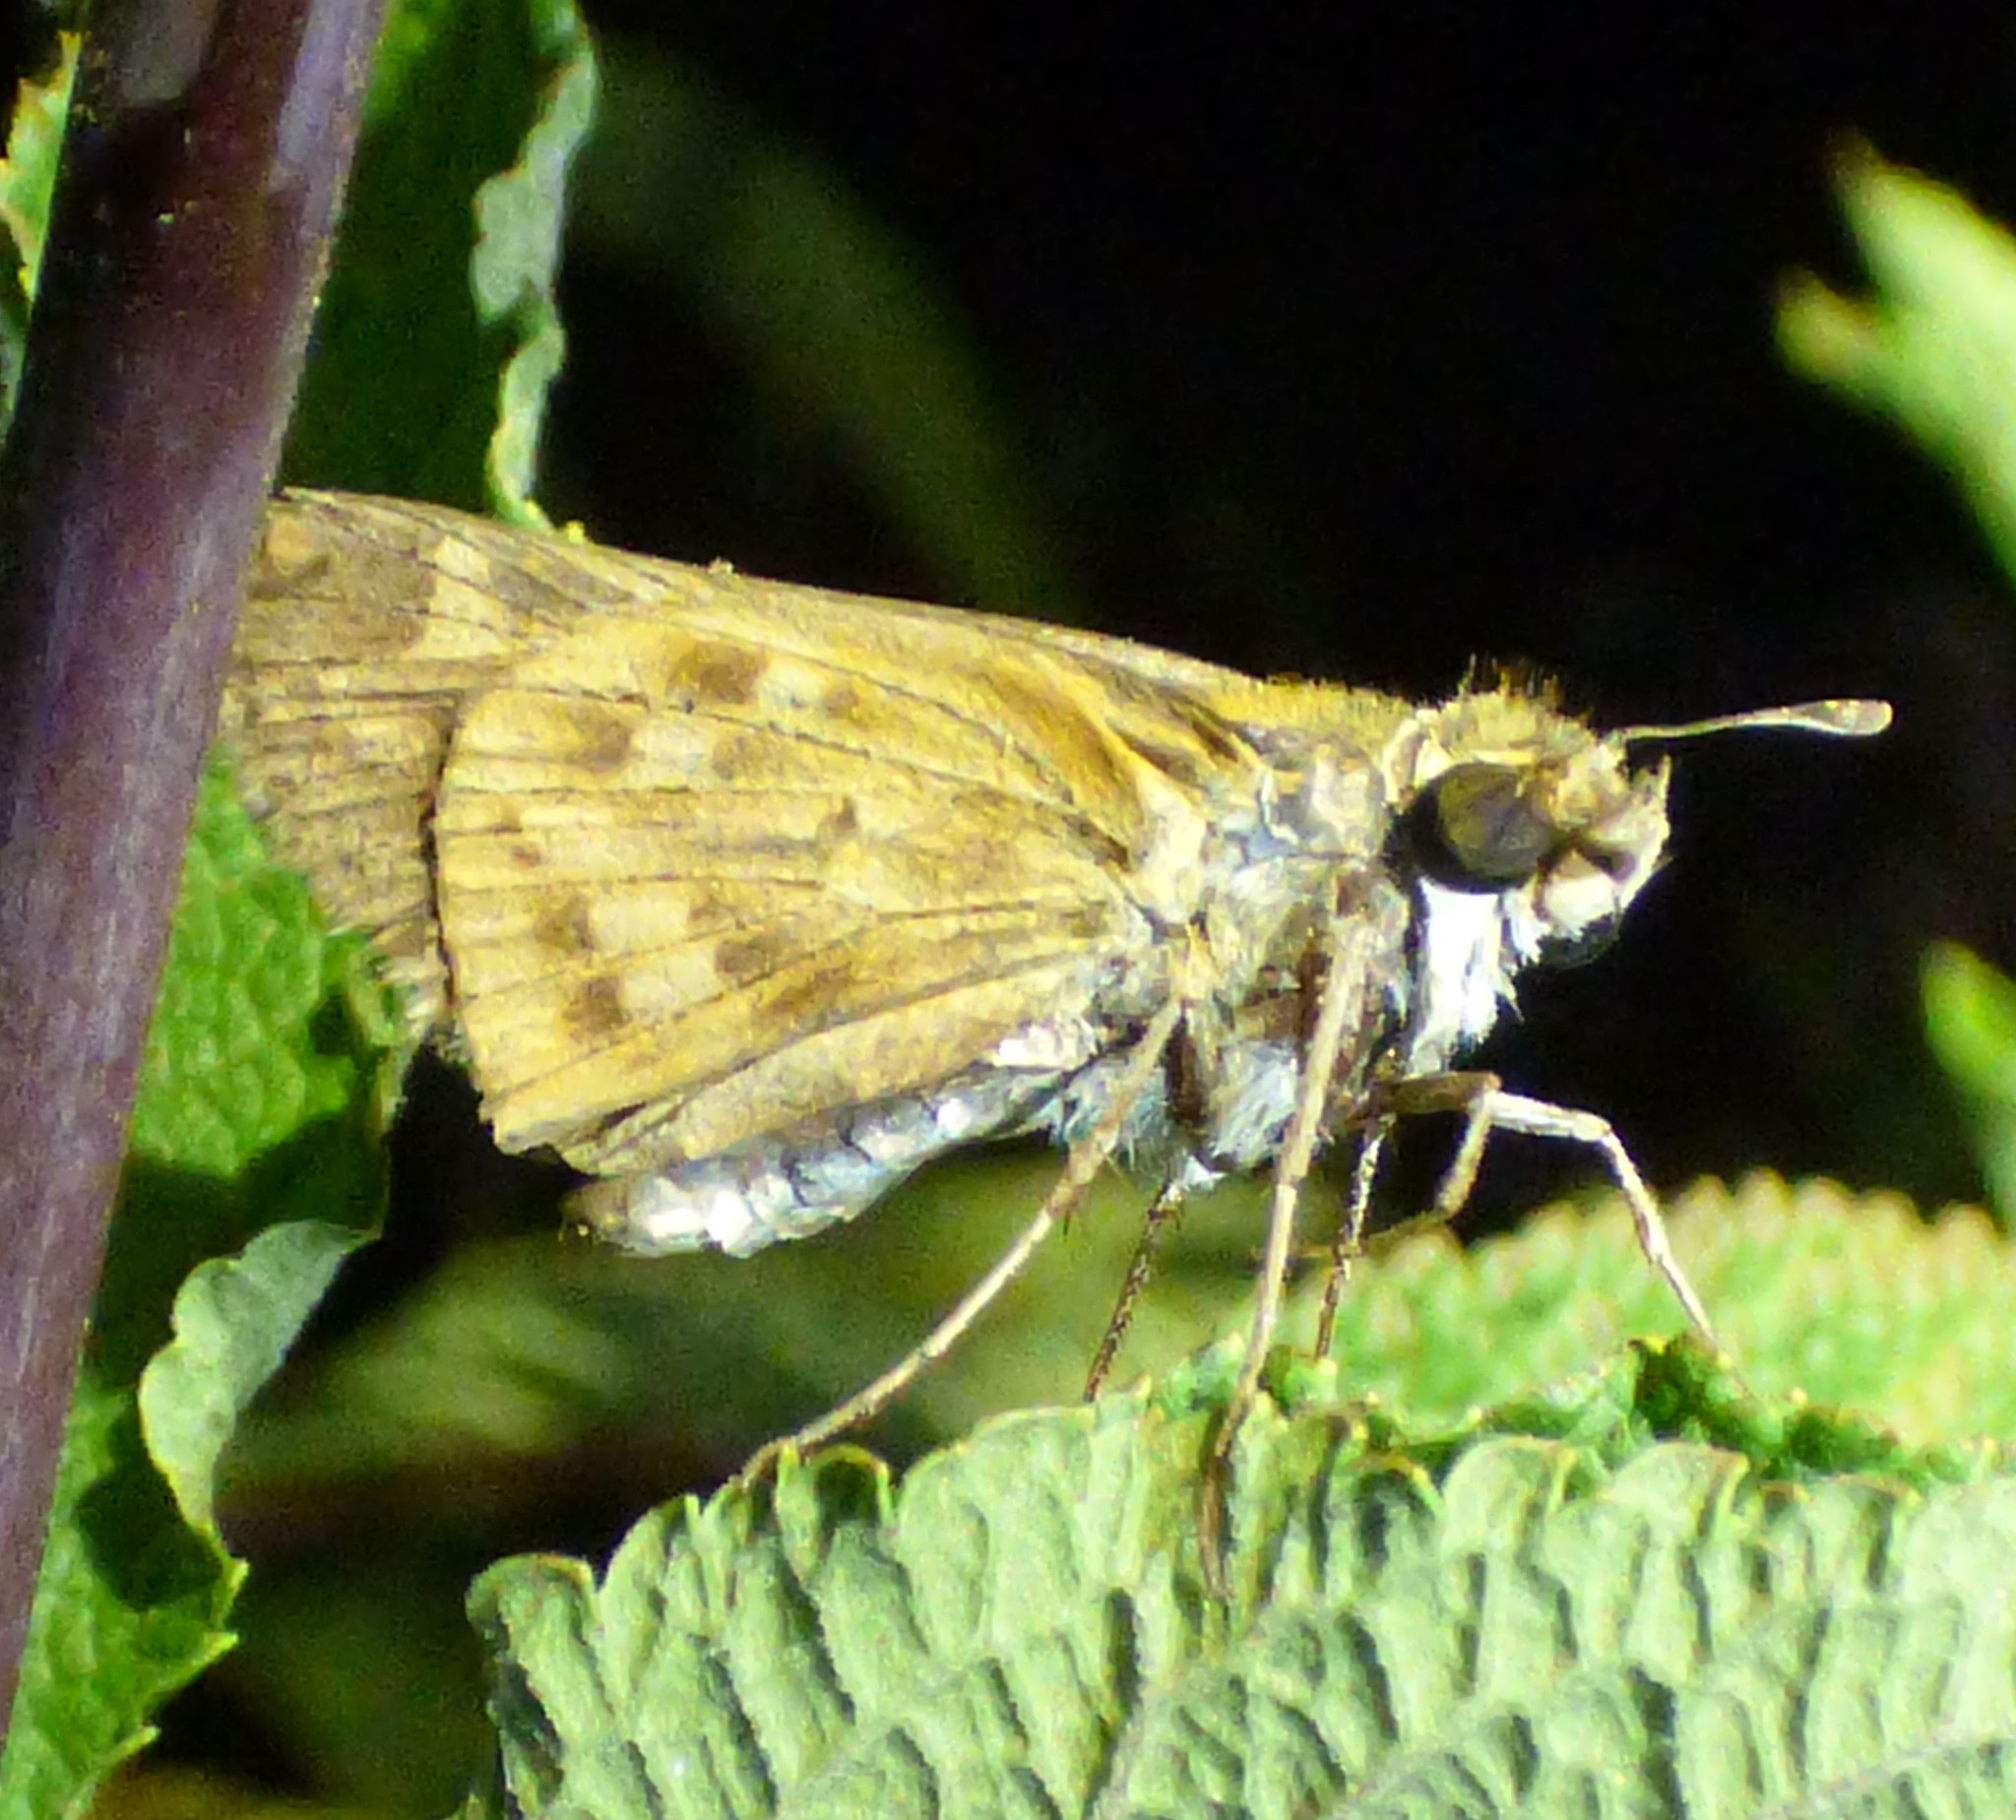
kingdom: Animalia
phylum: Arthropoda
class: Insecta
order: Lepidoptera
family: Hesperiidae
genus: Hylephila
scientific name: Hylephila phyleus
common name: Fiery skipper
